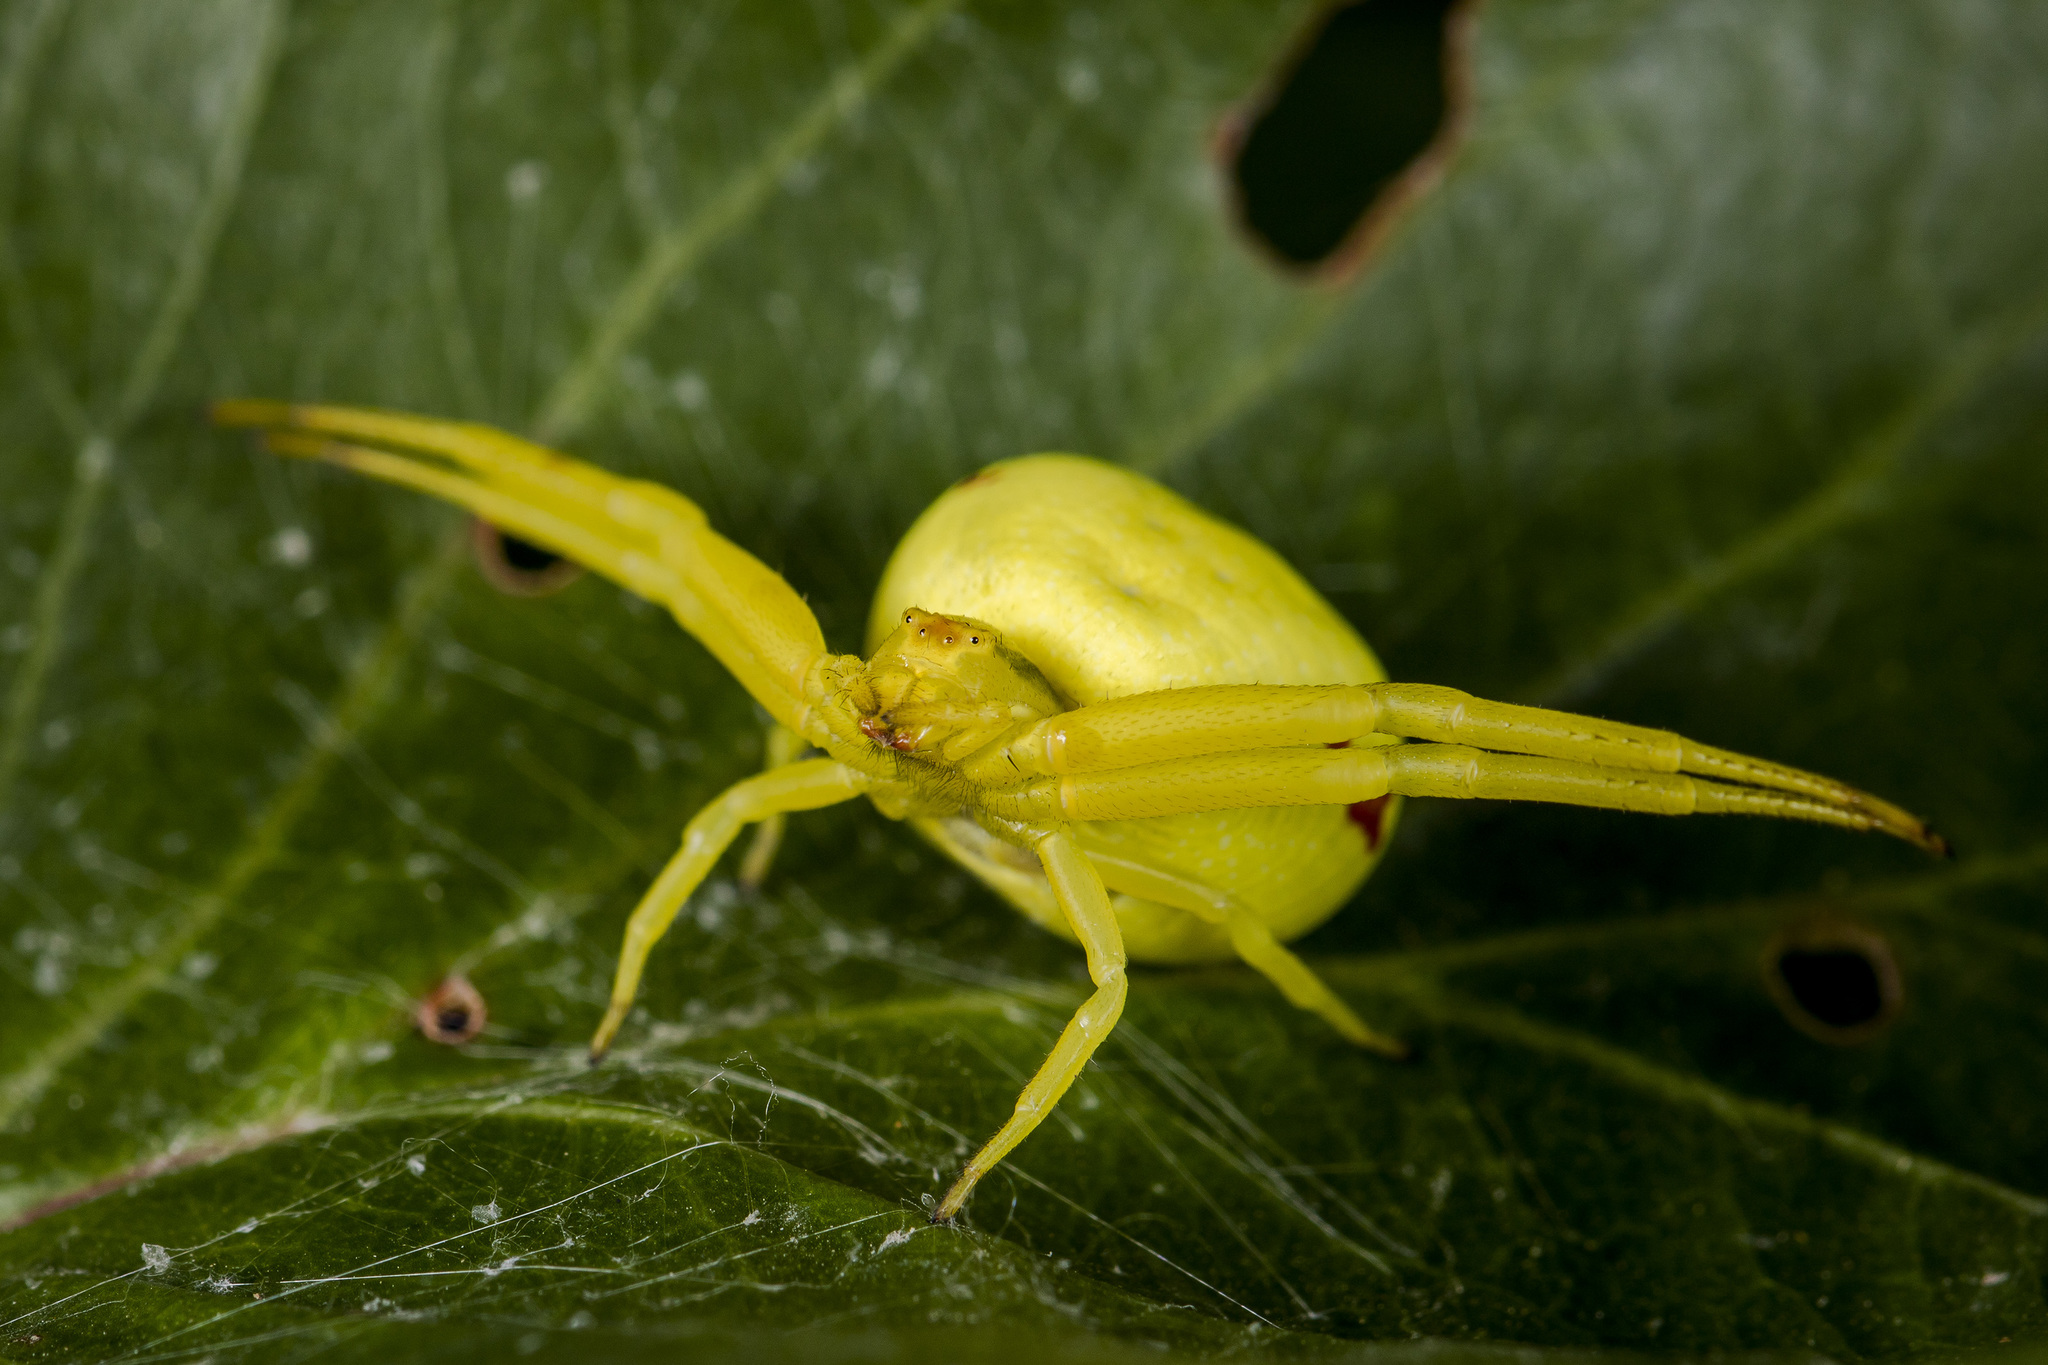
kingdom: Animalia
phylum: Arthropoda
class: Arachnida
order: Araneae
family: Thomisidae
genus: Misumena
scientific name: Misumena vatia
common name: Goldenrod crab spider
